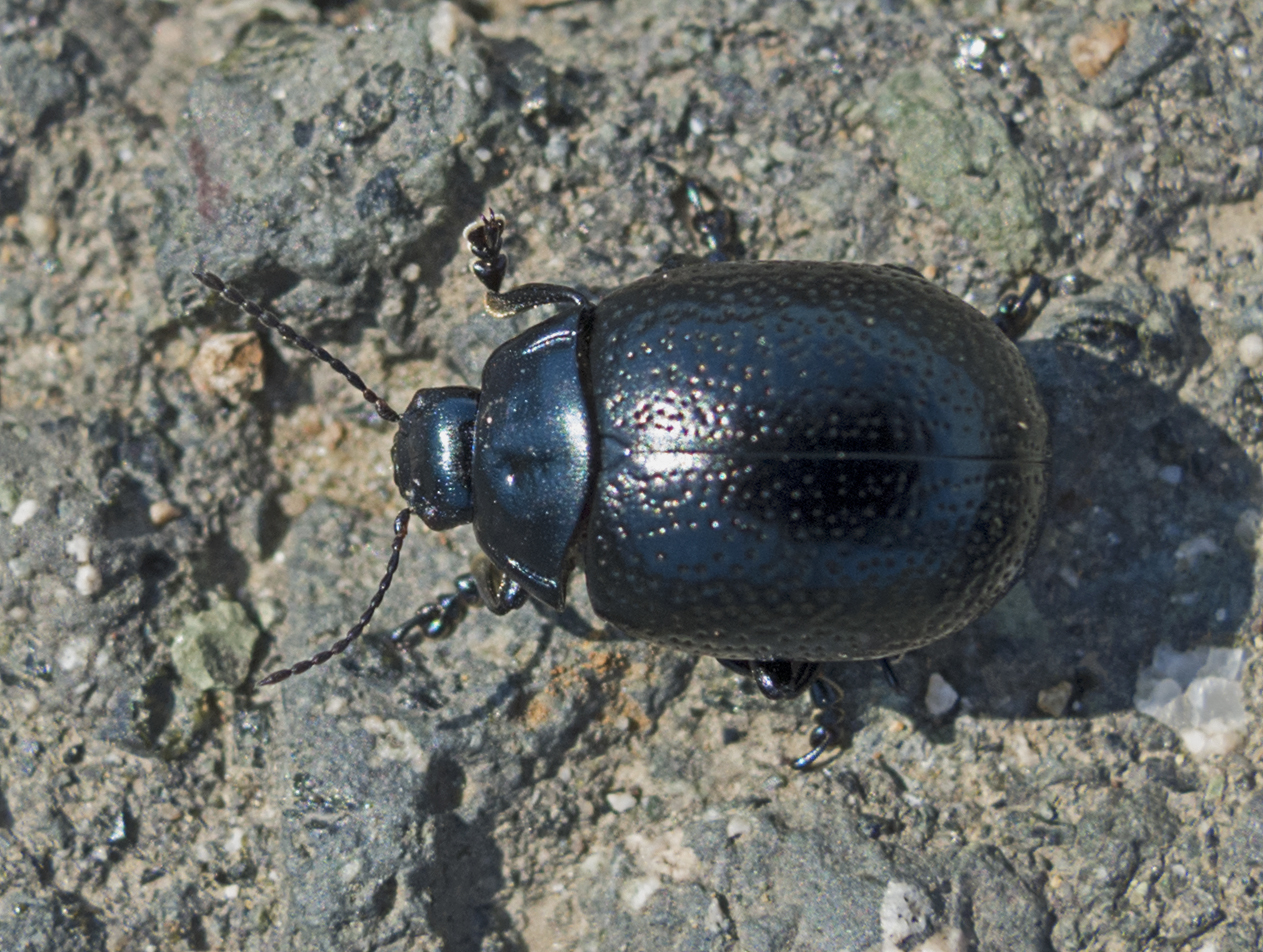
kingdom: Animalia
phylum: Arthropoda
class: Insecta
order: Coleoptera
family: Chrysomelidae
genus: Chrysolina
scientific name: Chrysolina vernalis
